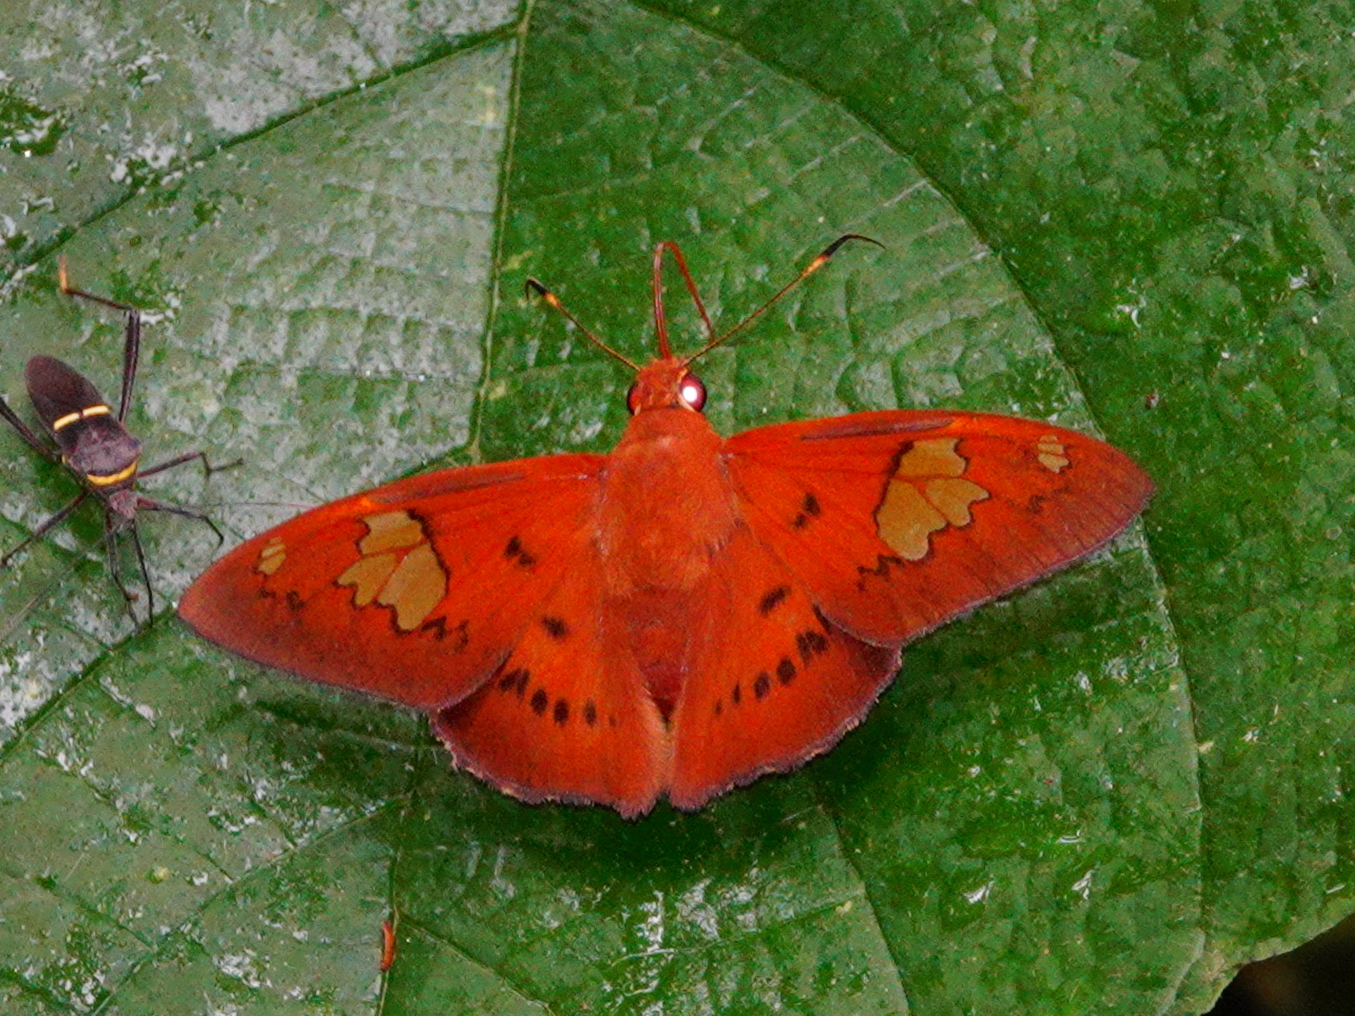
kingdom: Animalia
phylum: Arthropoda
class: Insecta
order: Lepidoptera
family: Hesperiidae
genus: Dyscophellus
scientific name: Dyscophellus euribates
